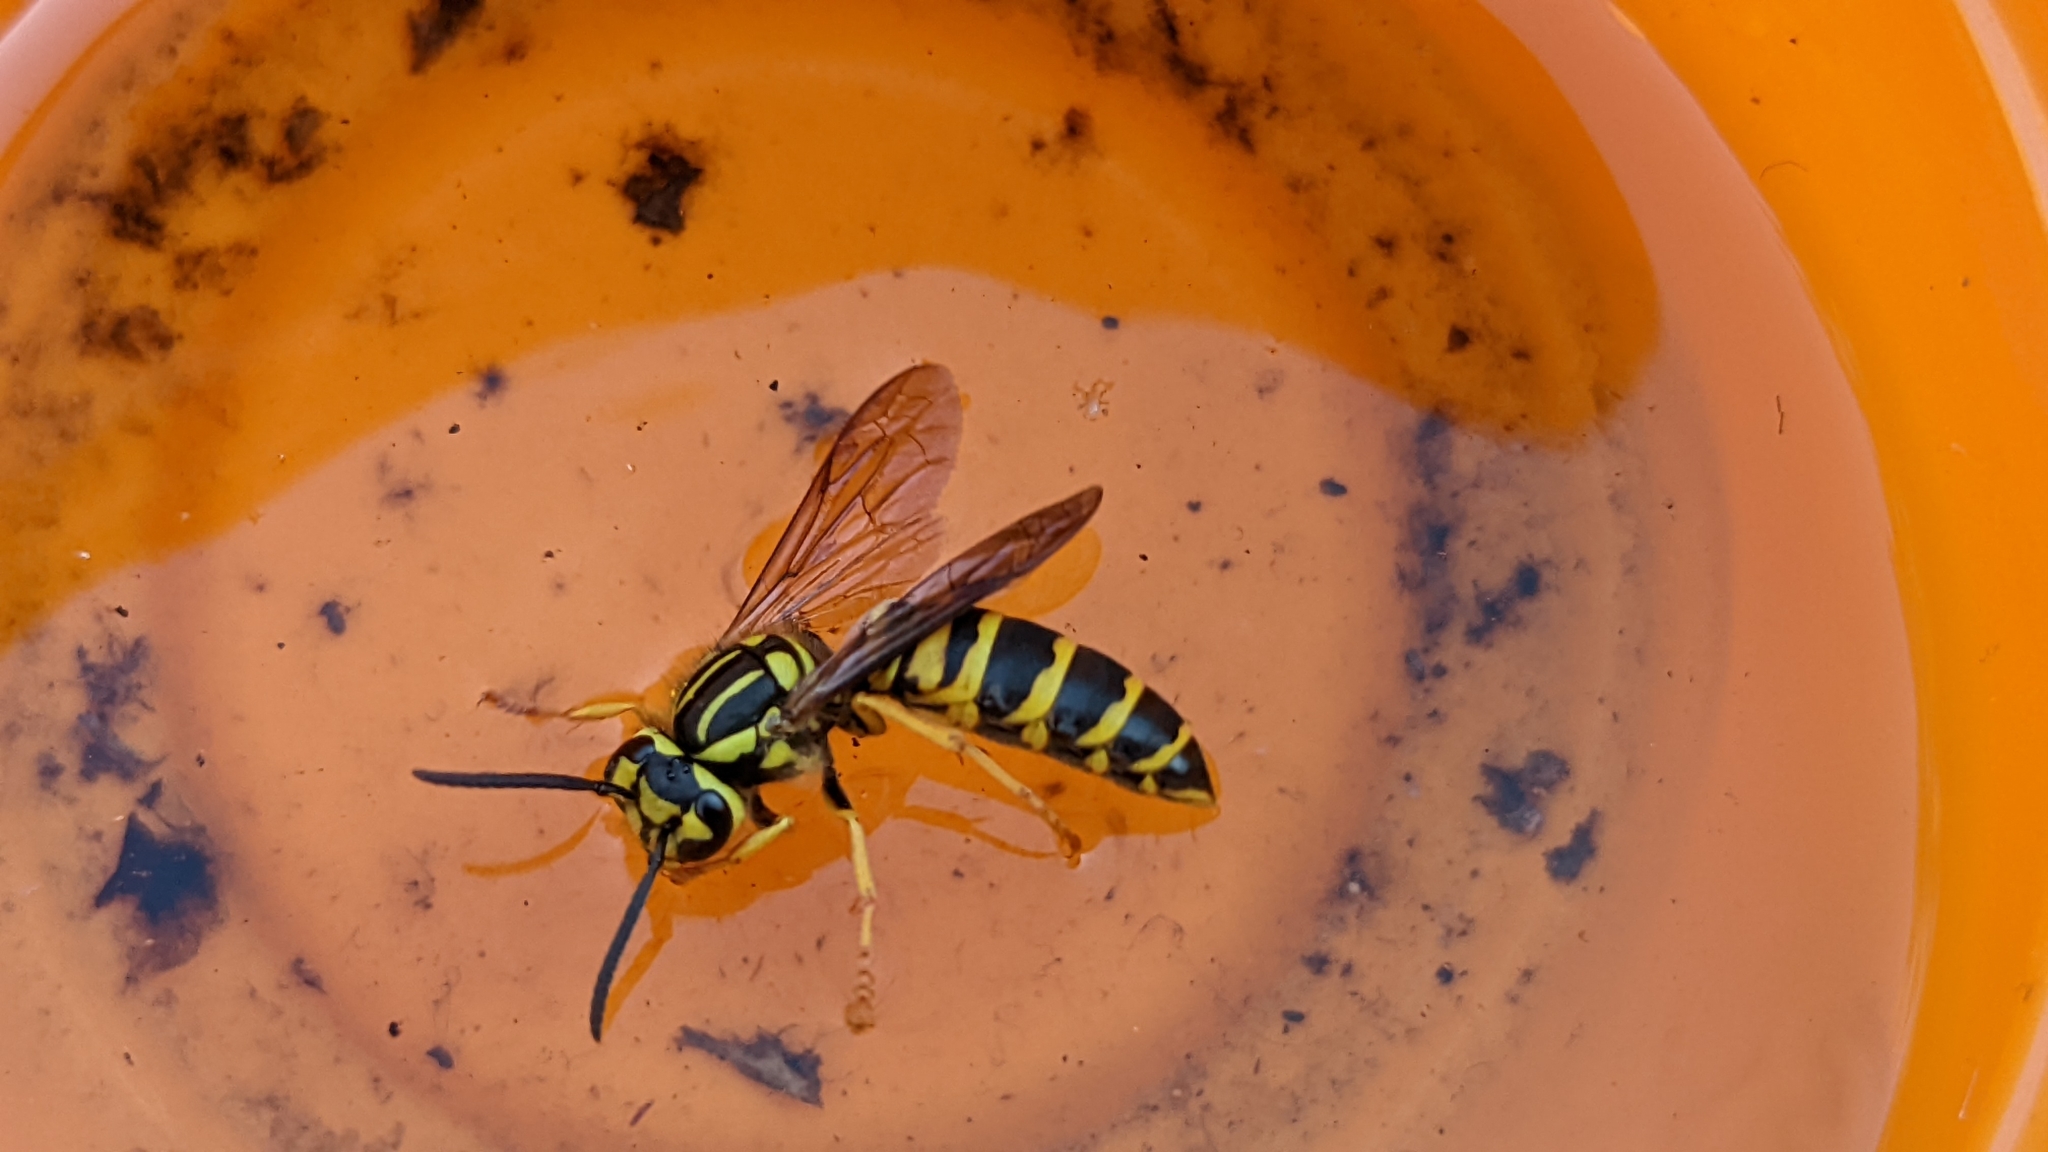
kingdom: Animalia
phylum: Arthropoda
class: Insecta
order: Hymenoptera
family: Vespidae
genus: Vespula
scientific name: Vespula squamosa
